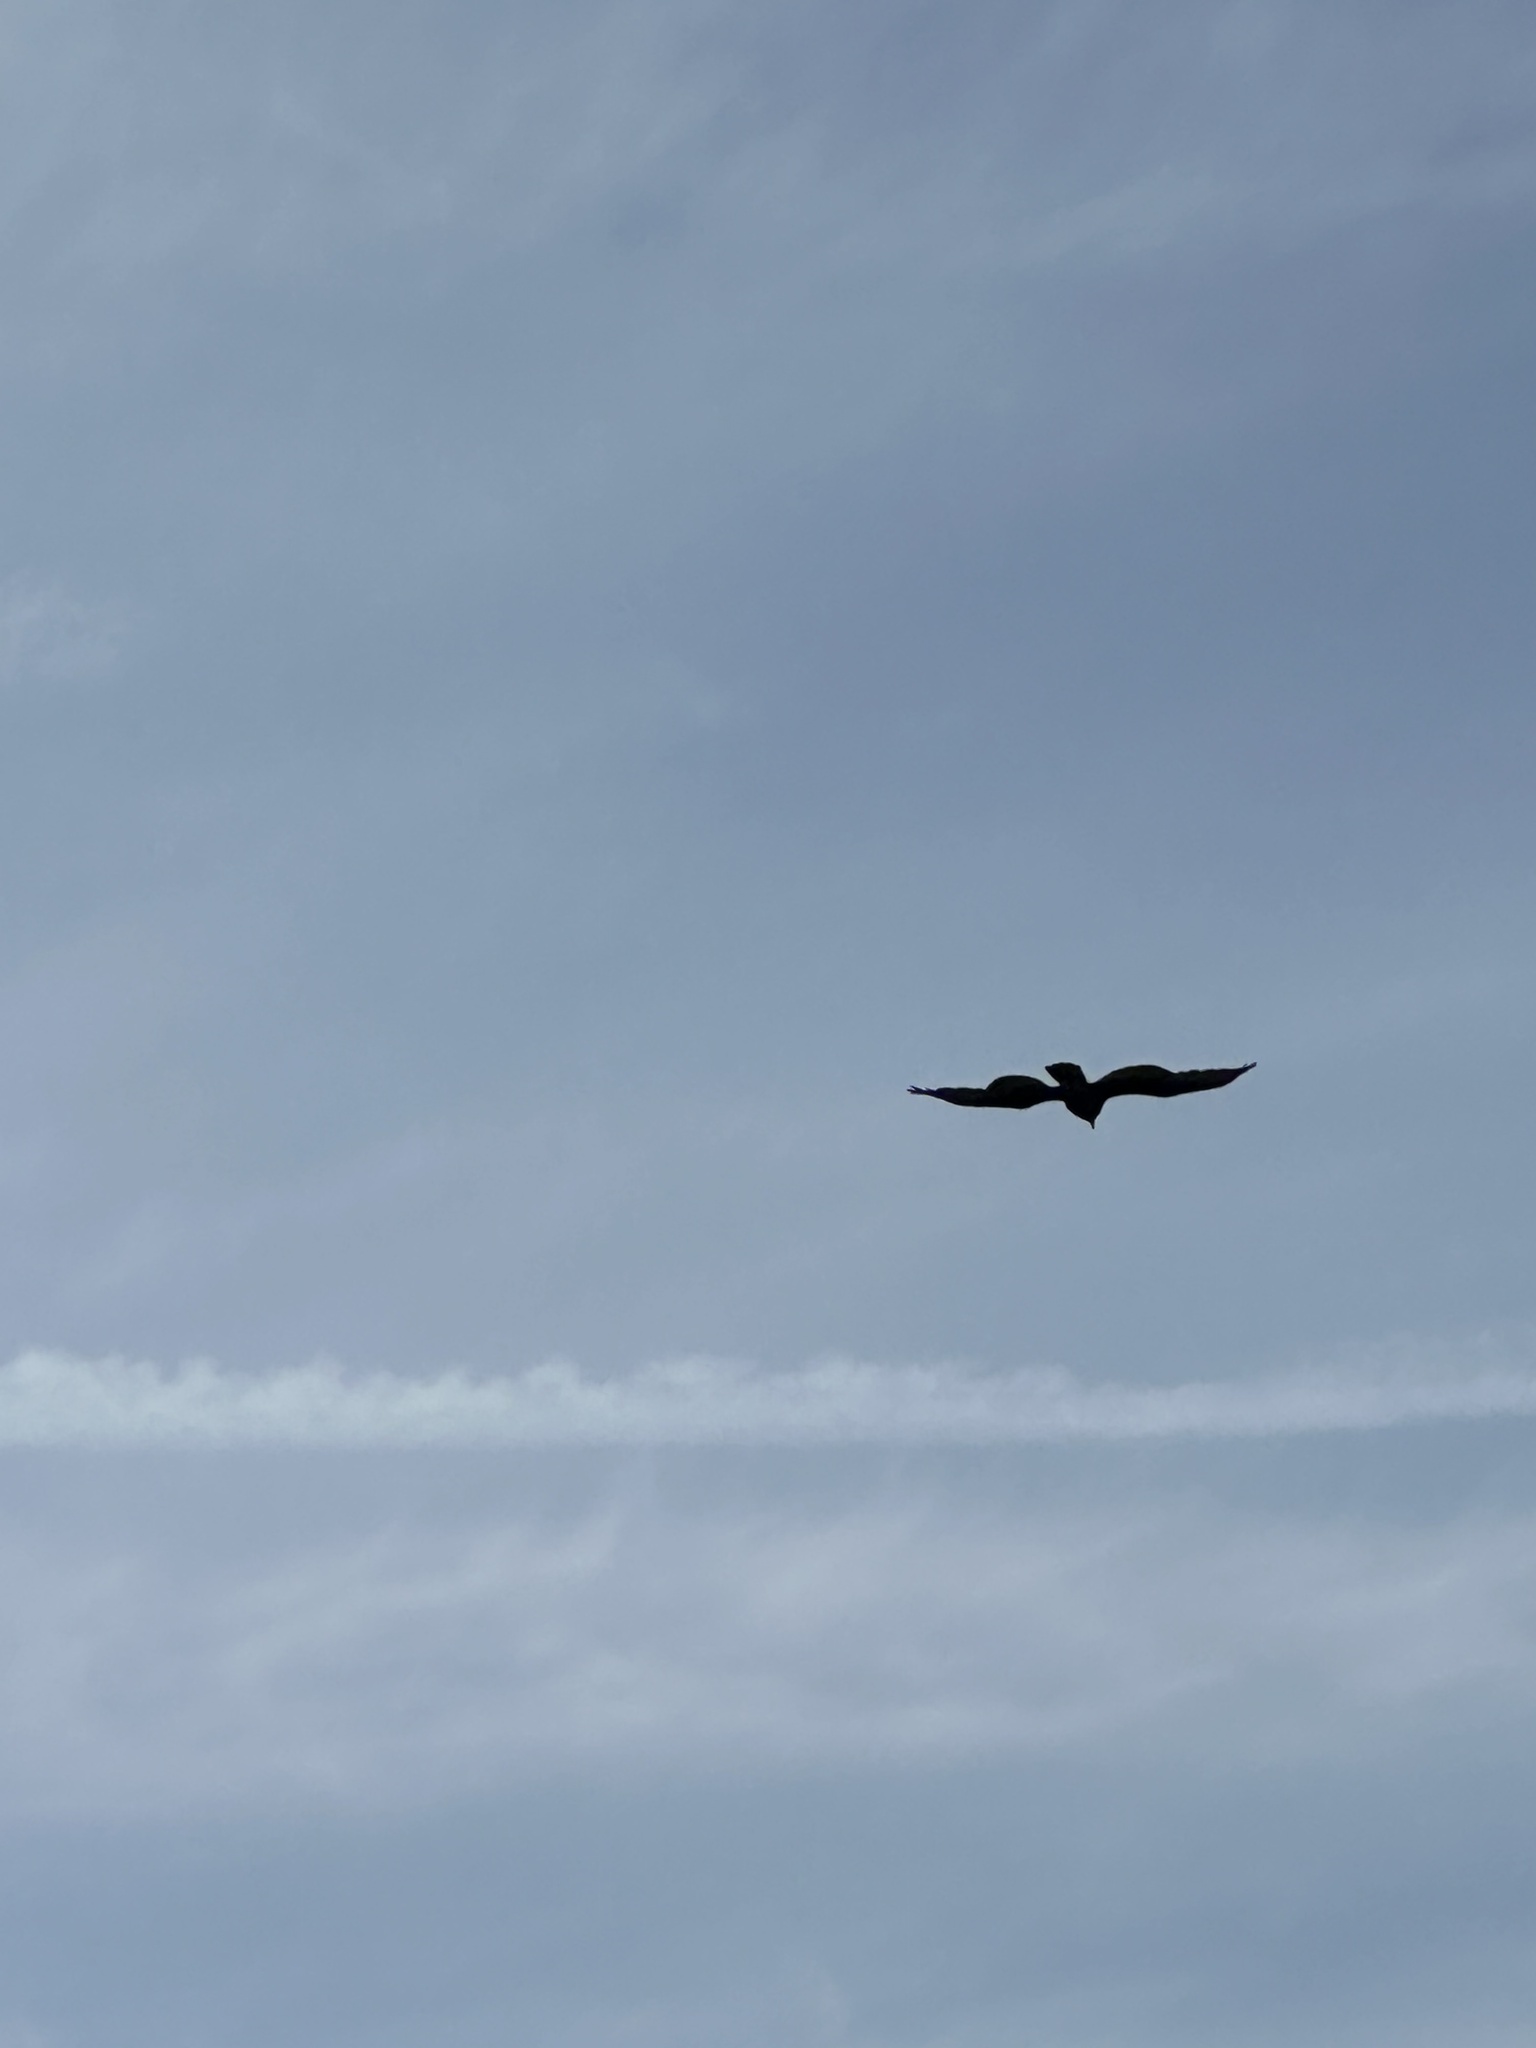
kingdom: Animalia
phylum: Chordata
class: Aves
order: Accipitriformes
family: Cathartidae
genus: Cathartes
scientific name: Cathartes aura
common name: Turkey vulture
